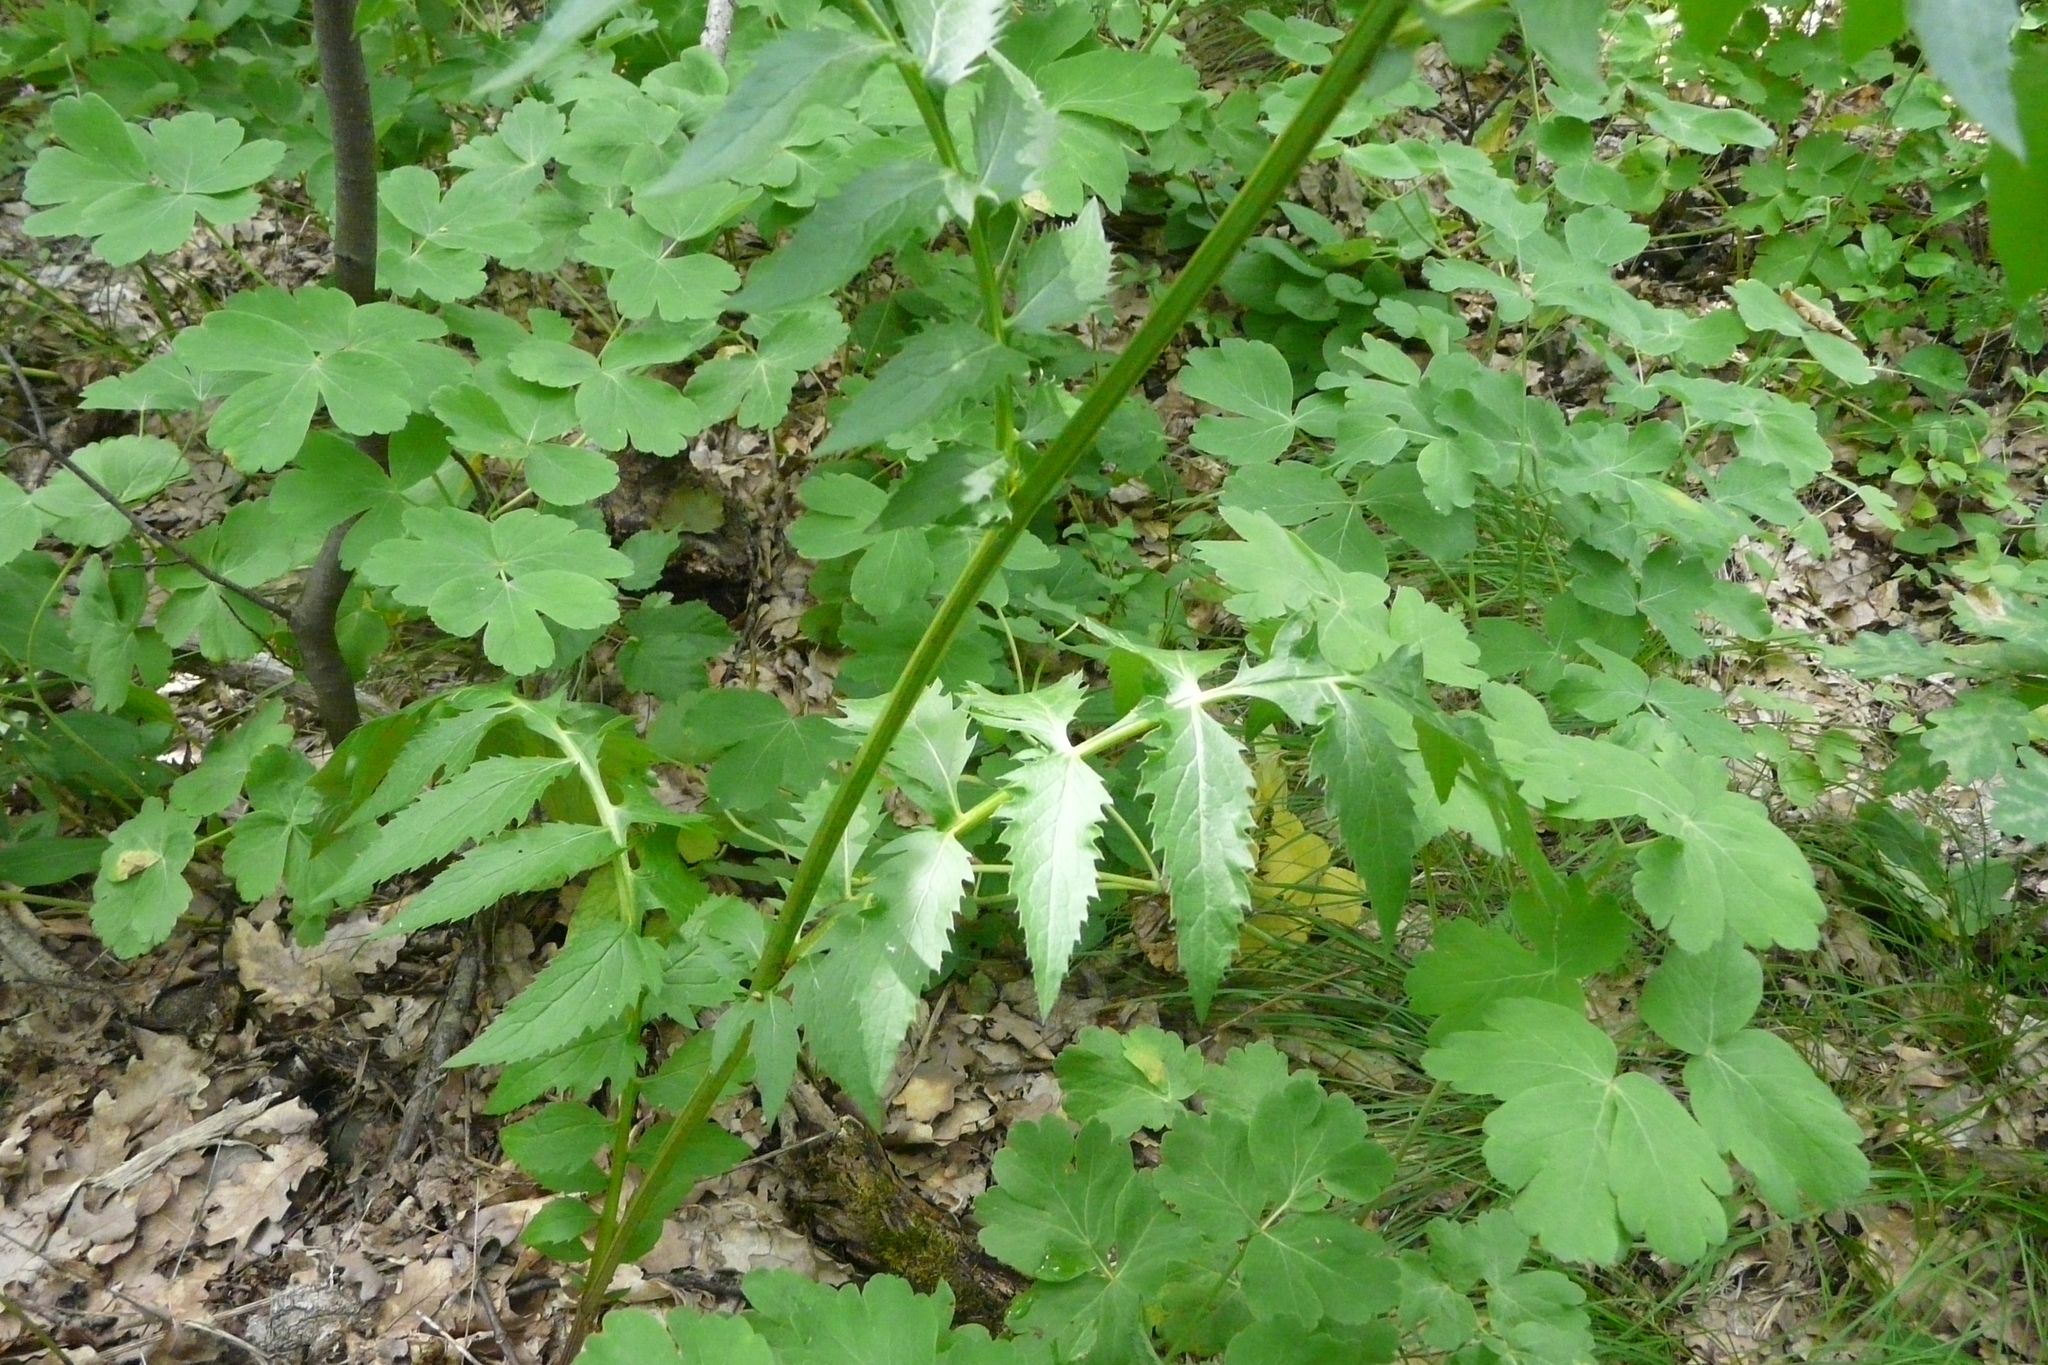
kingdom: Plantae
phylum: Tracheophyta
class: Magnoliopsida
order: Asterales
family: Asteraceae
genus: Serratula
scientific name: Serratula coronata
